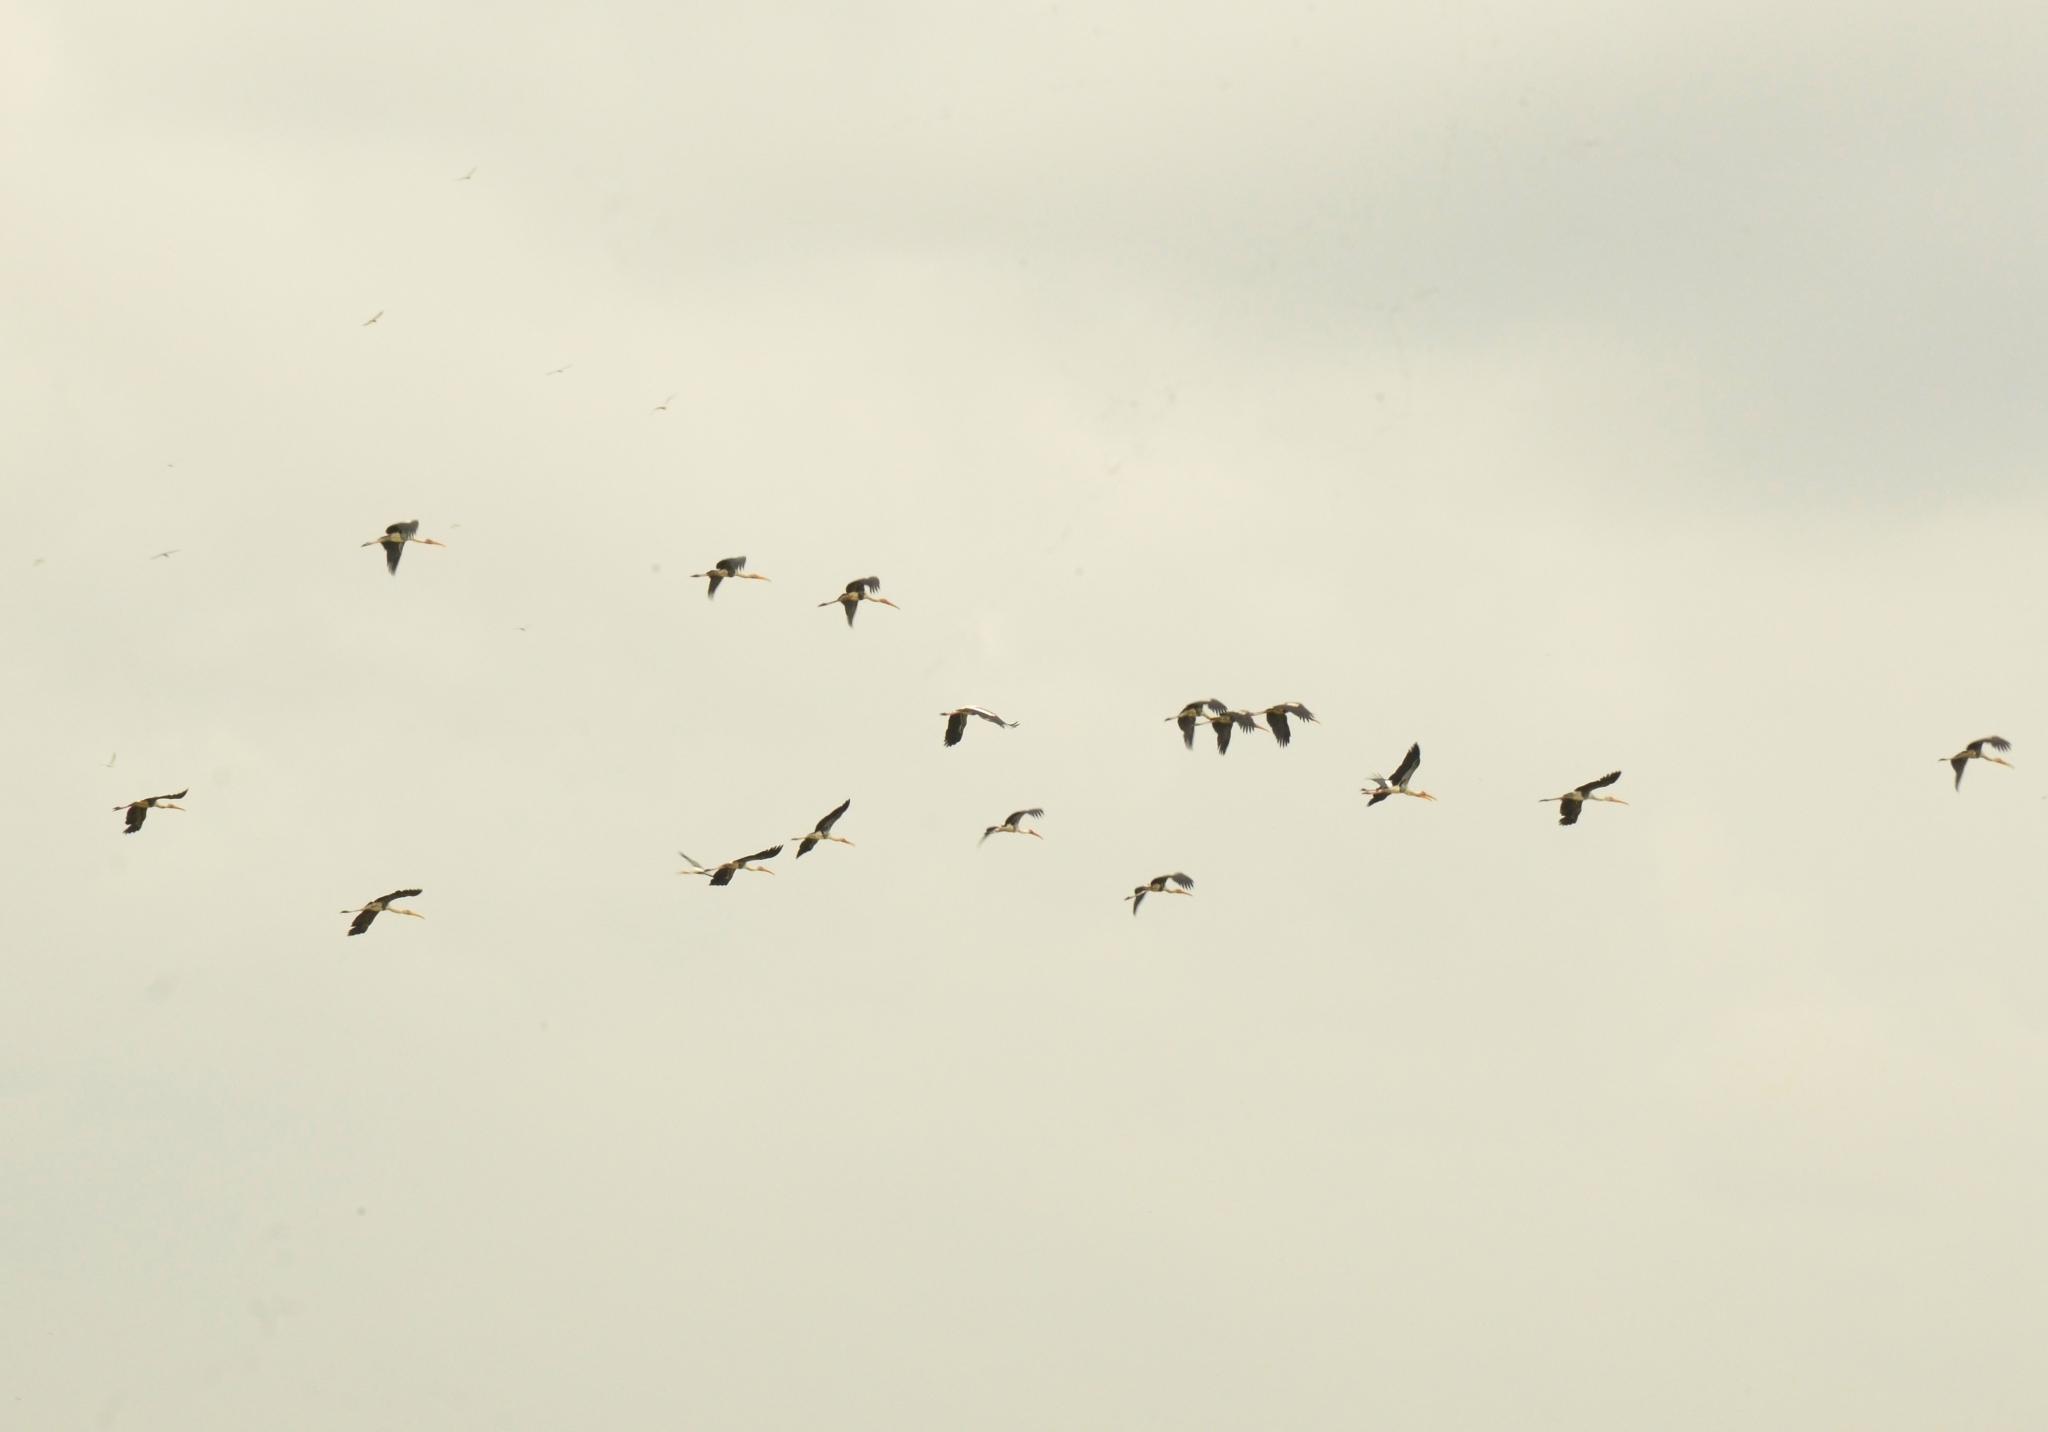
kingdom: Animalia
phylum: Chordata
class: Aves
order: Ciconiiformes
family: Ciconiidae
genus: Mycteria
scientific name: Mycteria leucocephala
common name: Painted stork
